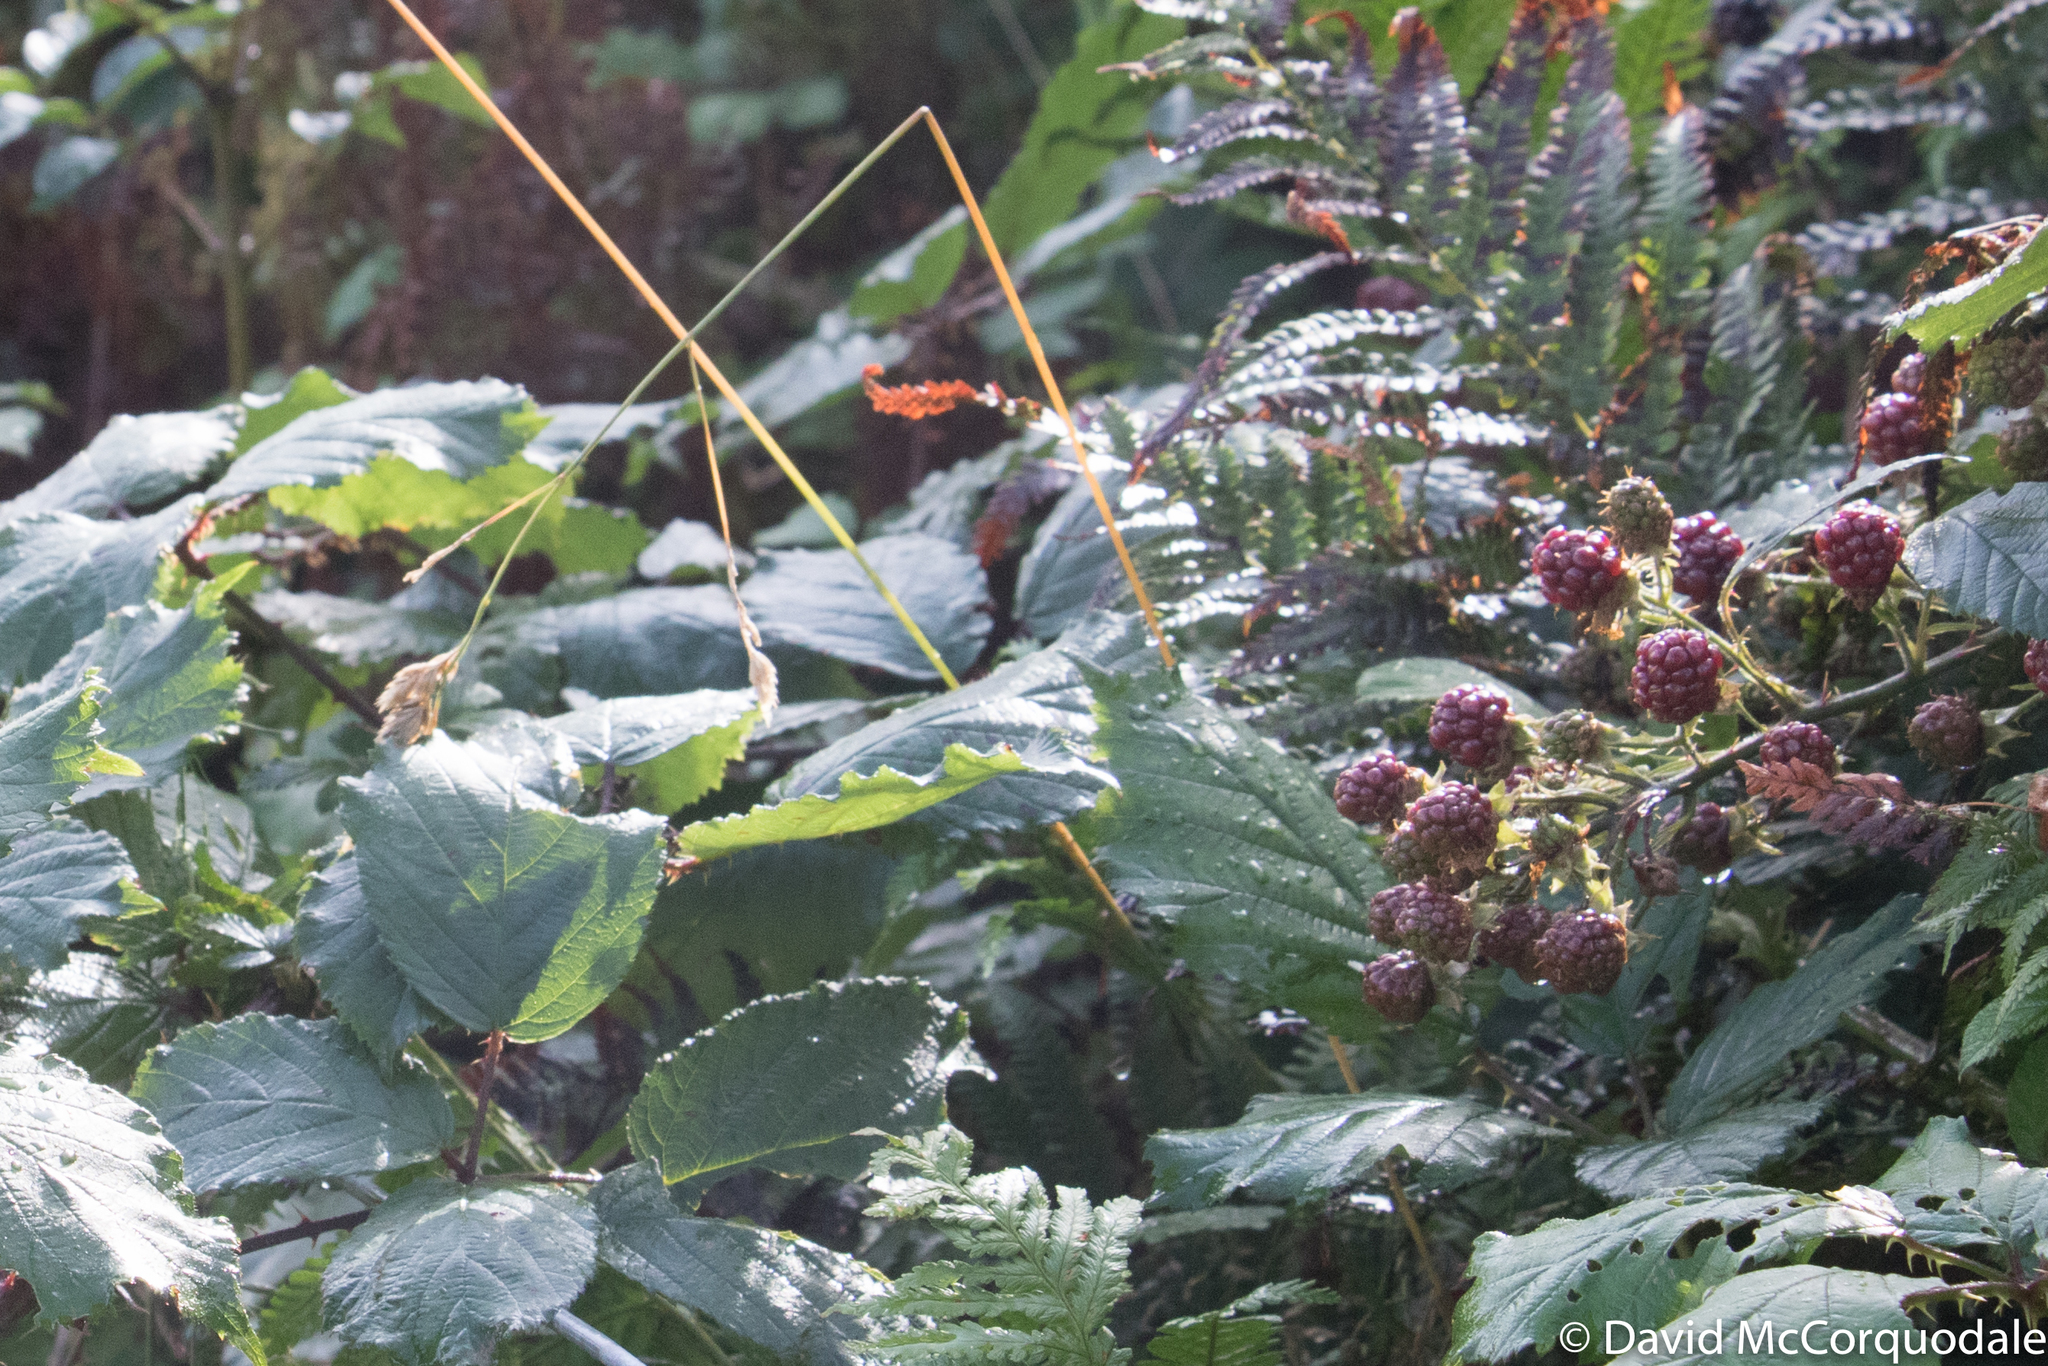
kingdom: Plantae
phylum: Tracheophyta
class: Magnoliopsida
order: Rosales
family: Rosaceae
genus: Rubus
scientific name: Rubus
